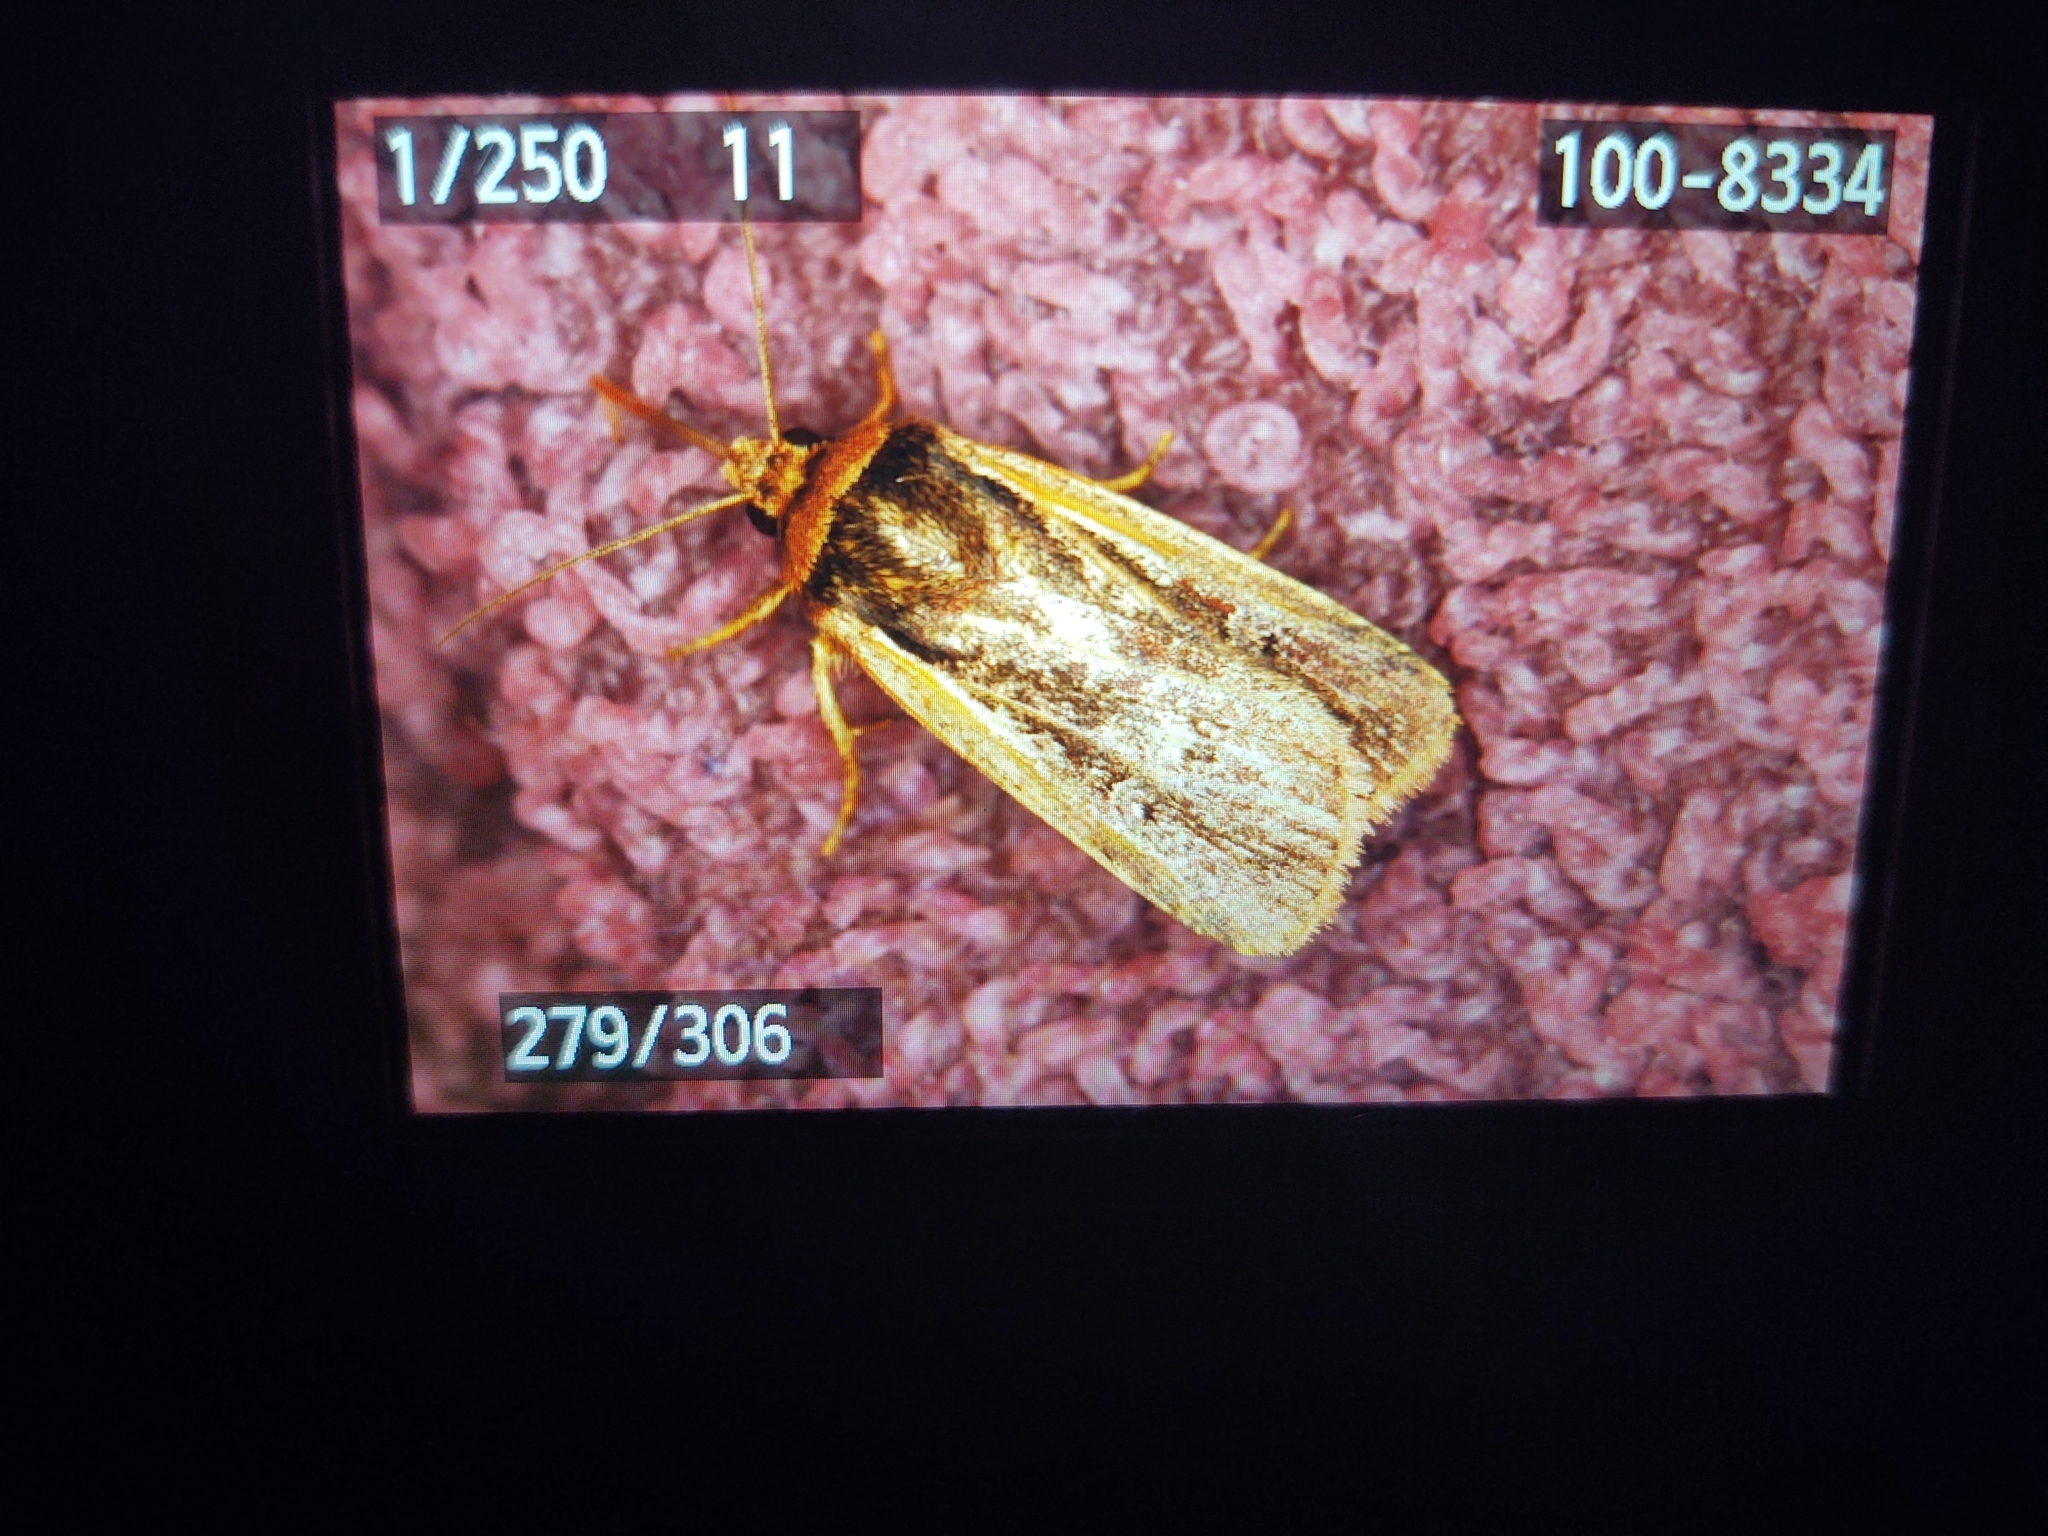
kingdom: Animalia
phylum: Arthropoda
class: Insecta
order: Lepidoptera
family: Noctuidae
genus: Ochropleura
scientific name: Ochropleura plecta
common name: Flame shoulder
